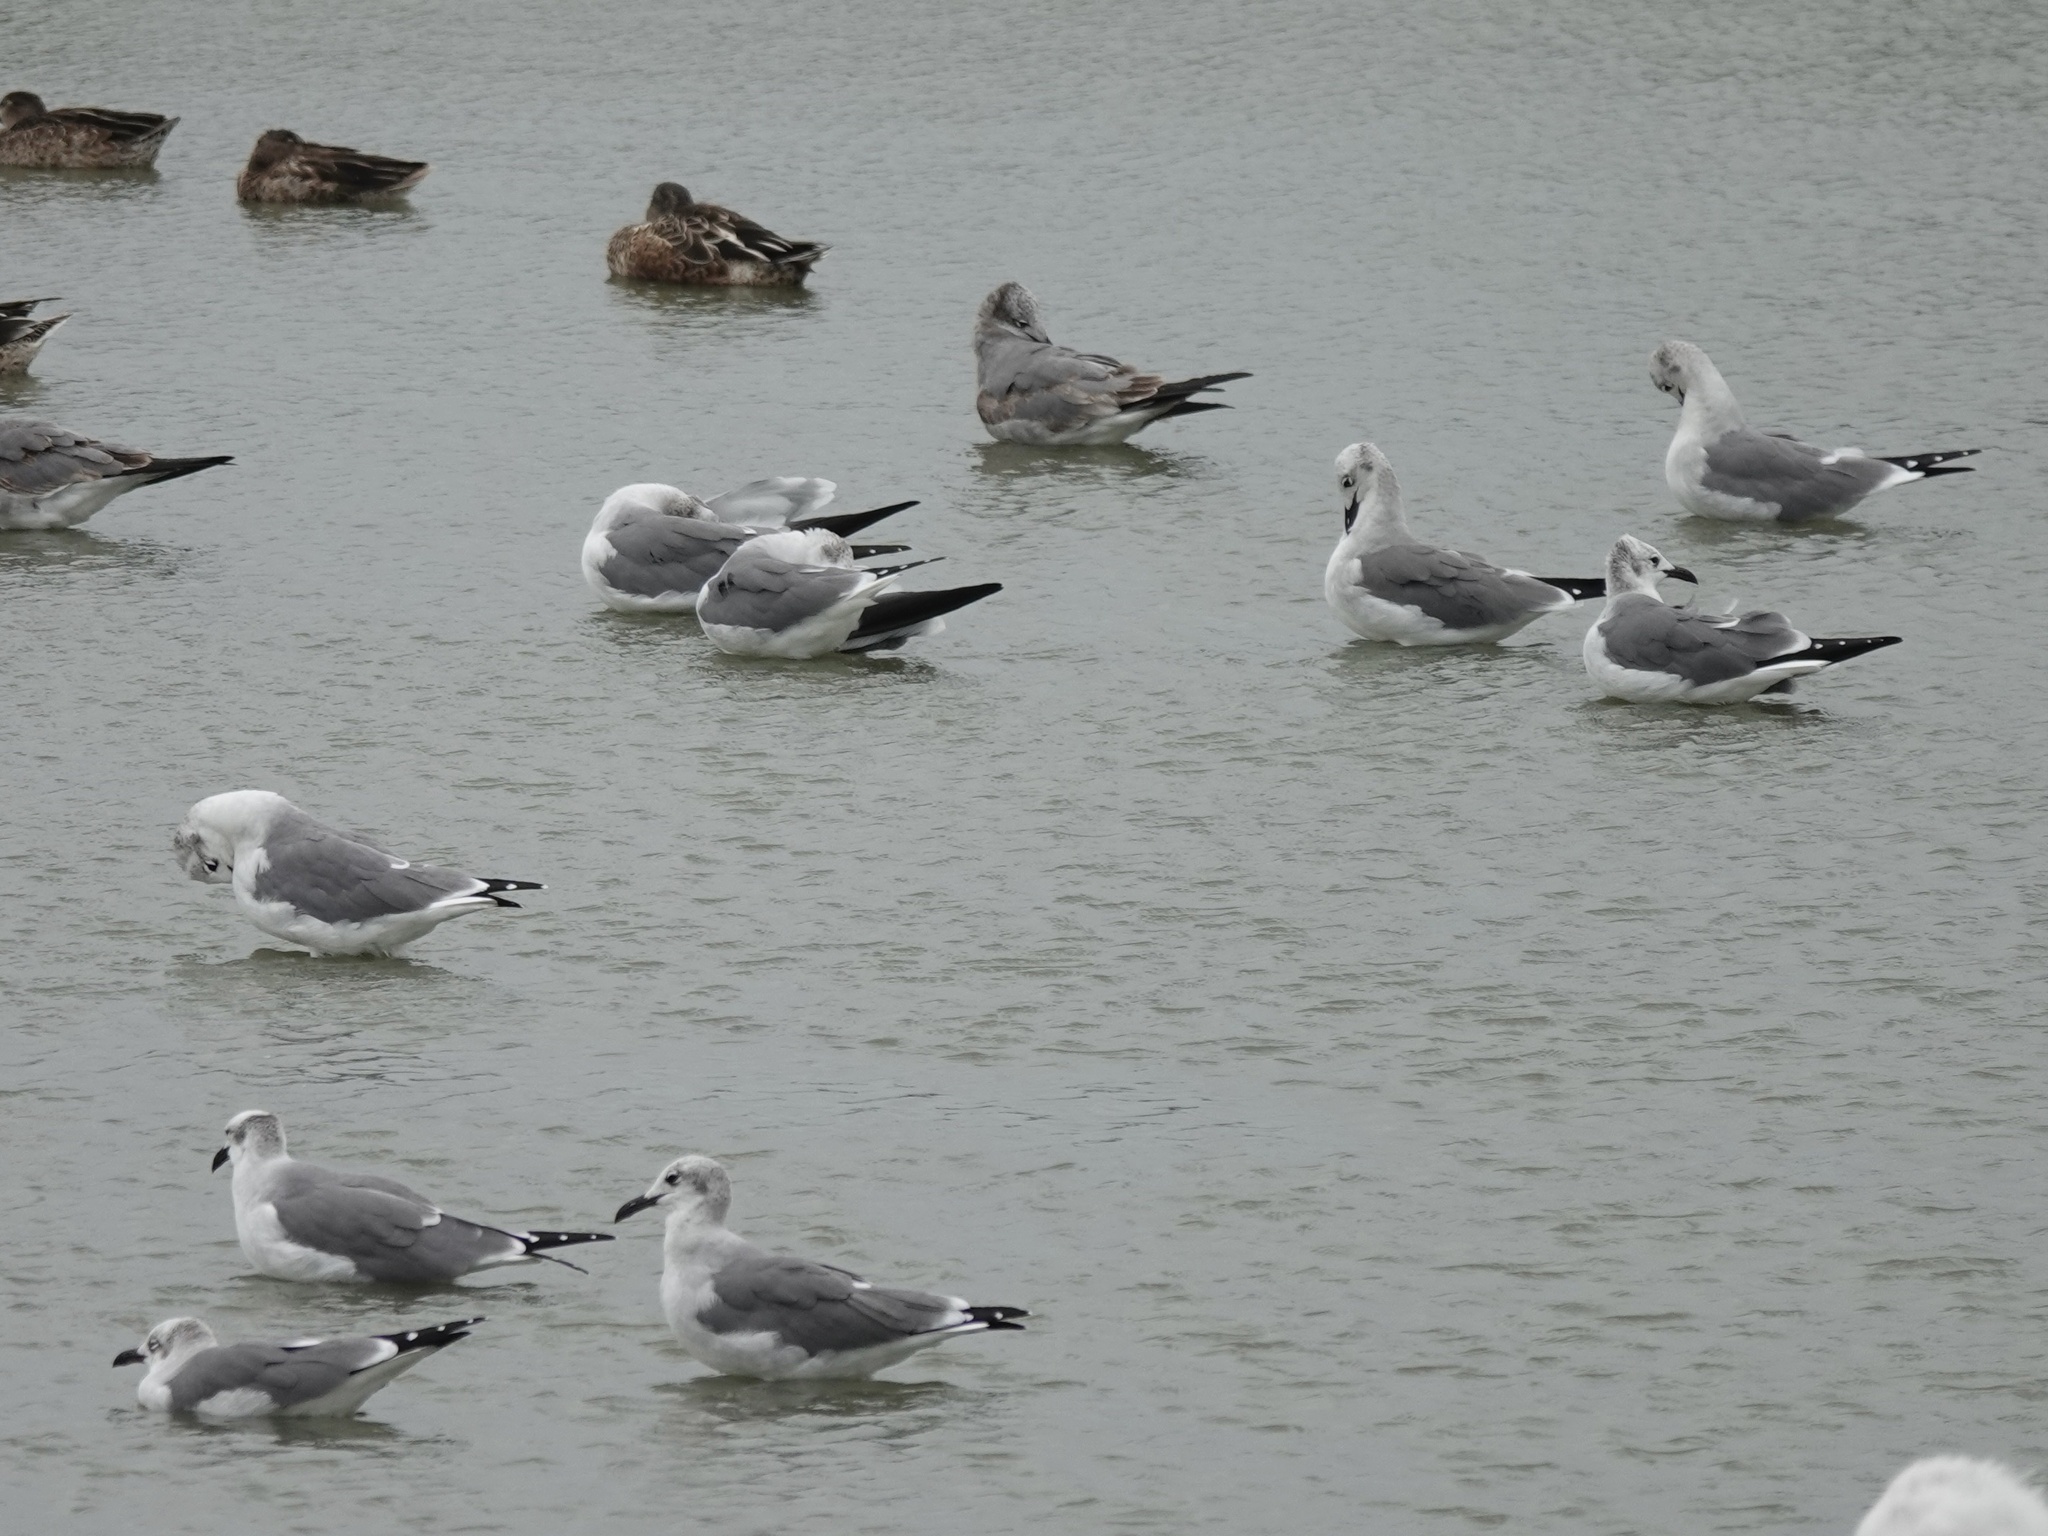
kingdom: Animalia
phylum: Chordata
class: Aves
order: Charadriiformes
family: Laridae
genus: Leucophaeus
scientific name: Leucophaeus atricilla
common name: Laughing gull
